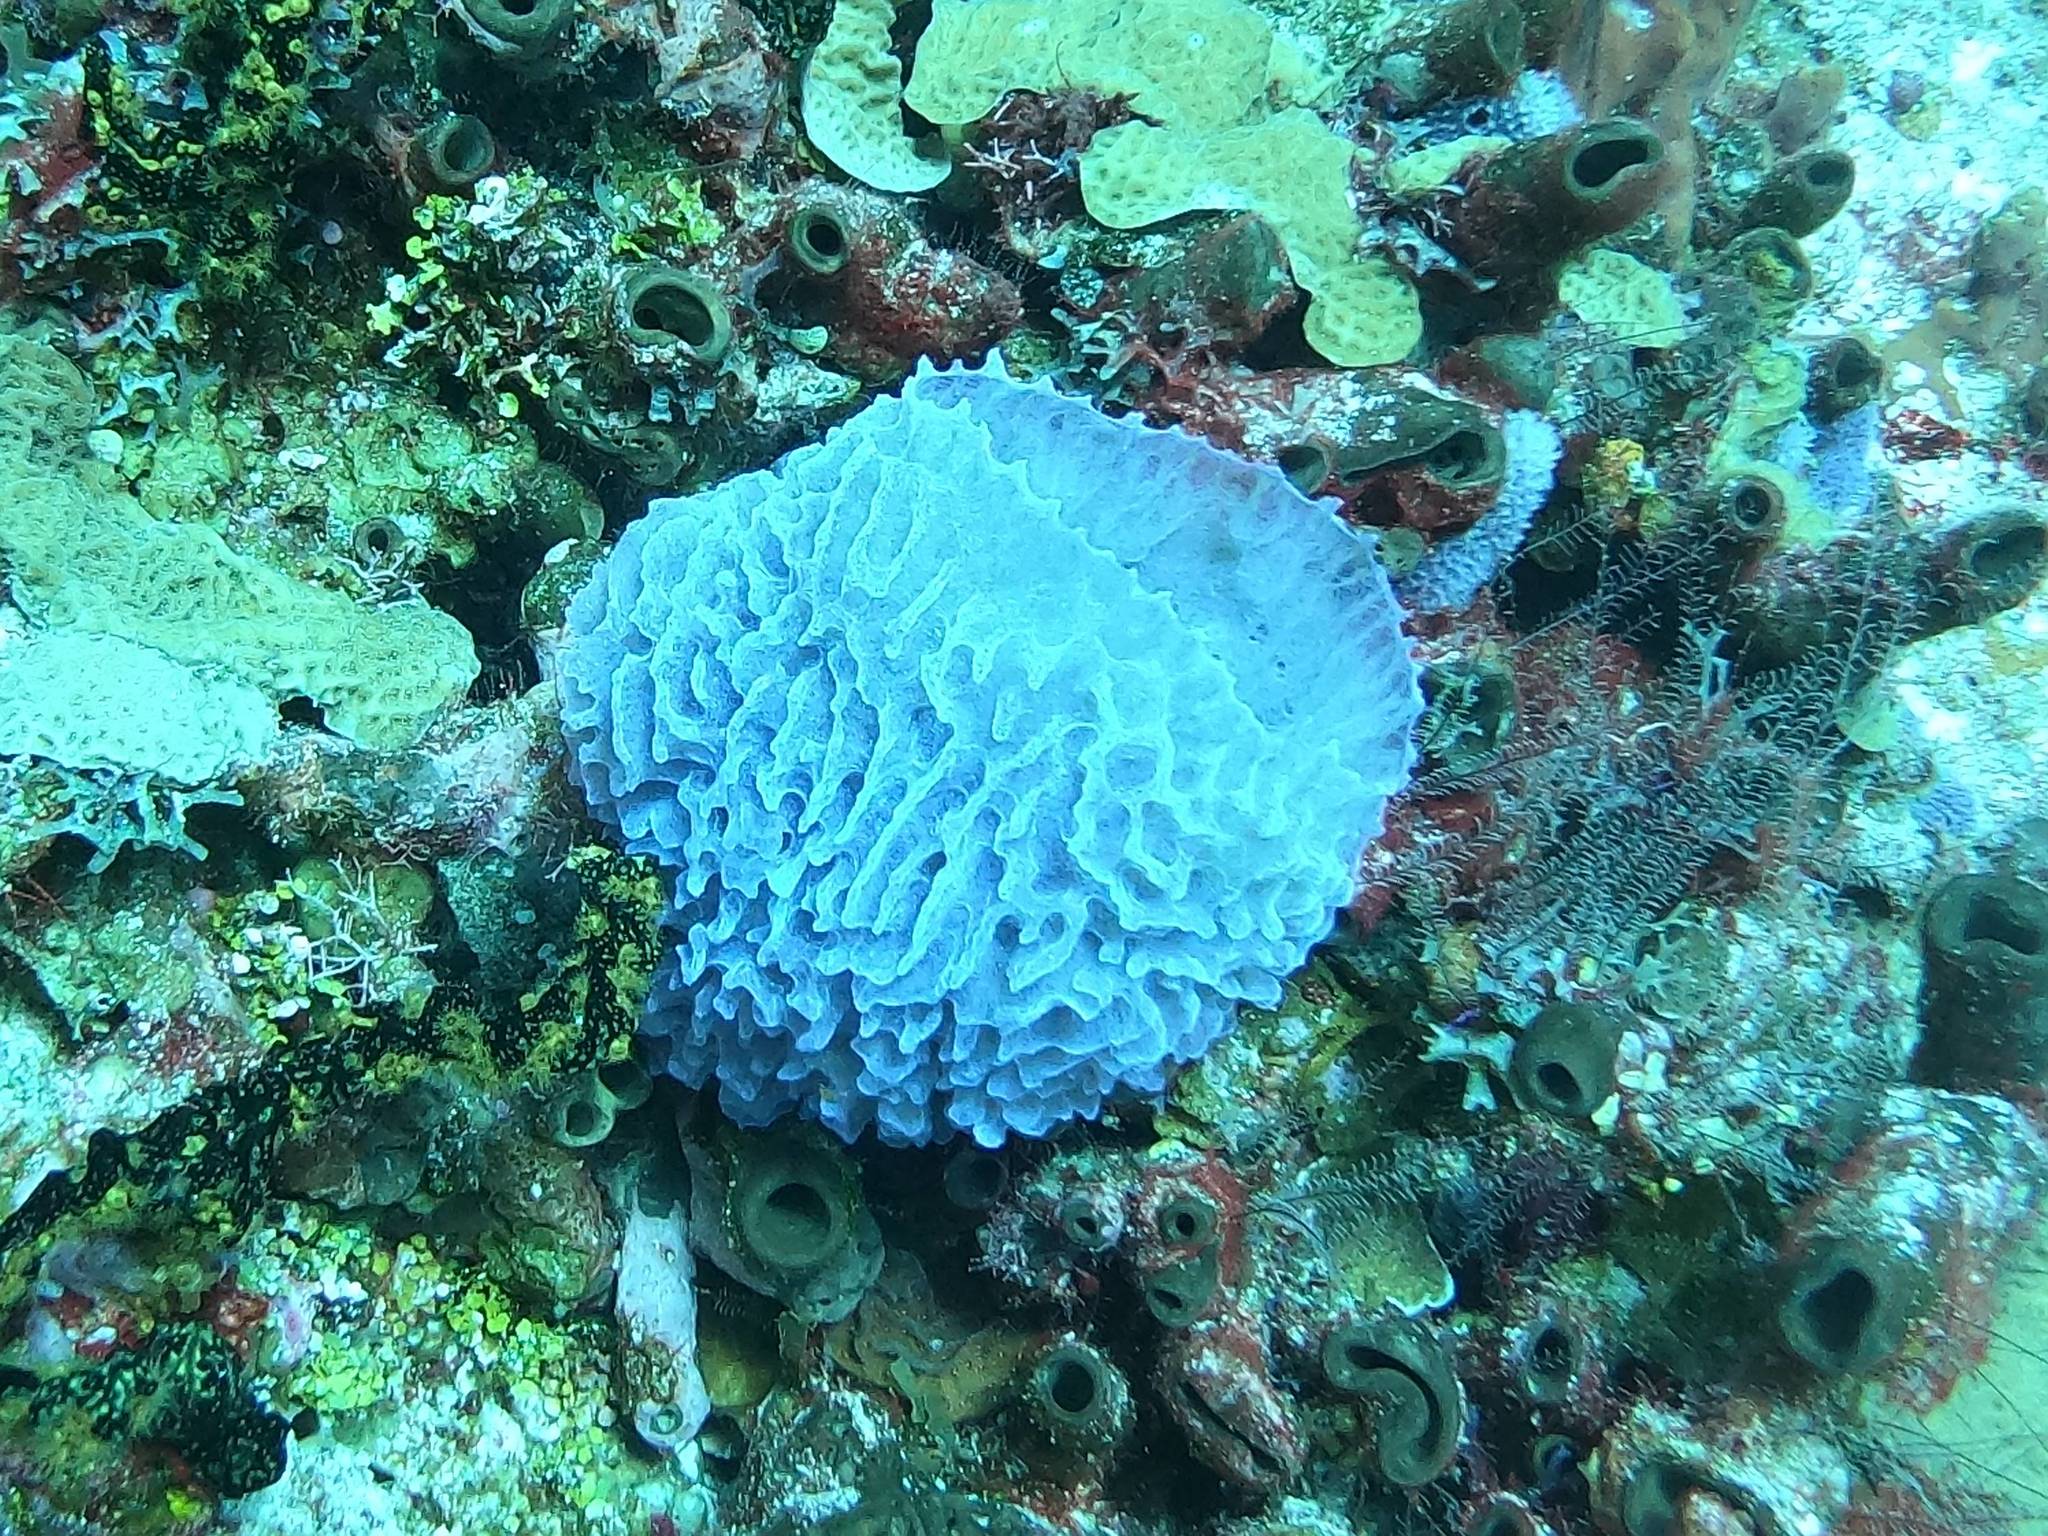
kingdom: Animalia
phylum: Porifera
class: Demospongiae
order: Haplosclerida
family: Callyspongiidae
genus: Callyspongia
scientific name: Callyspongia plicifera
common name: Azure vase sponge
